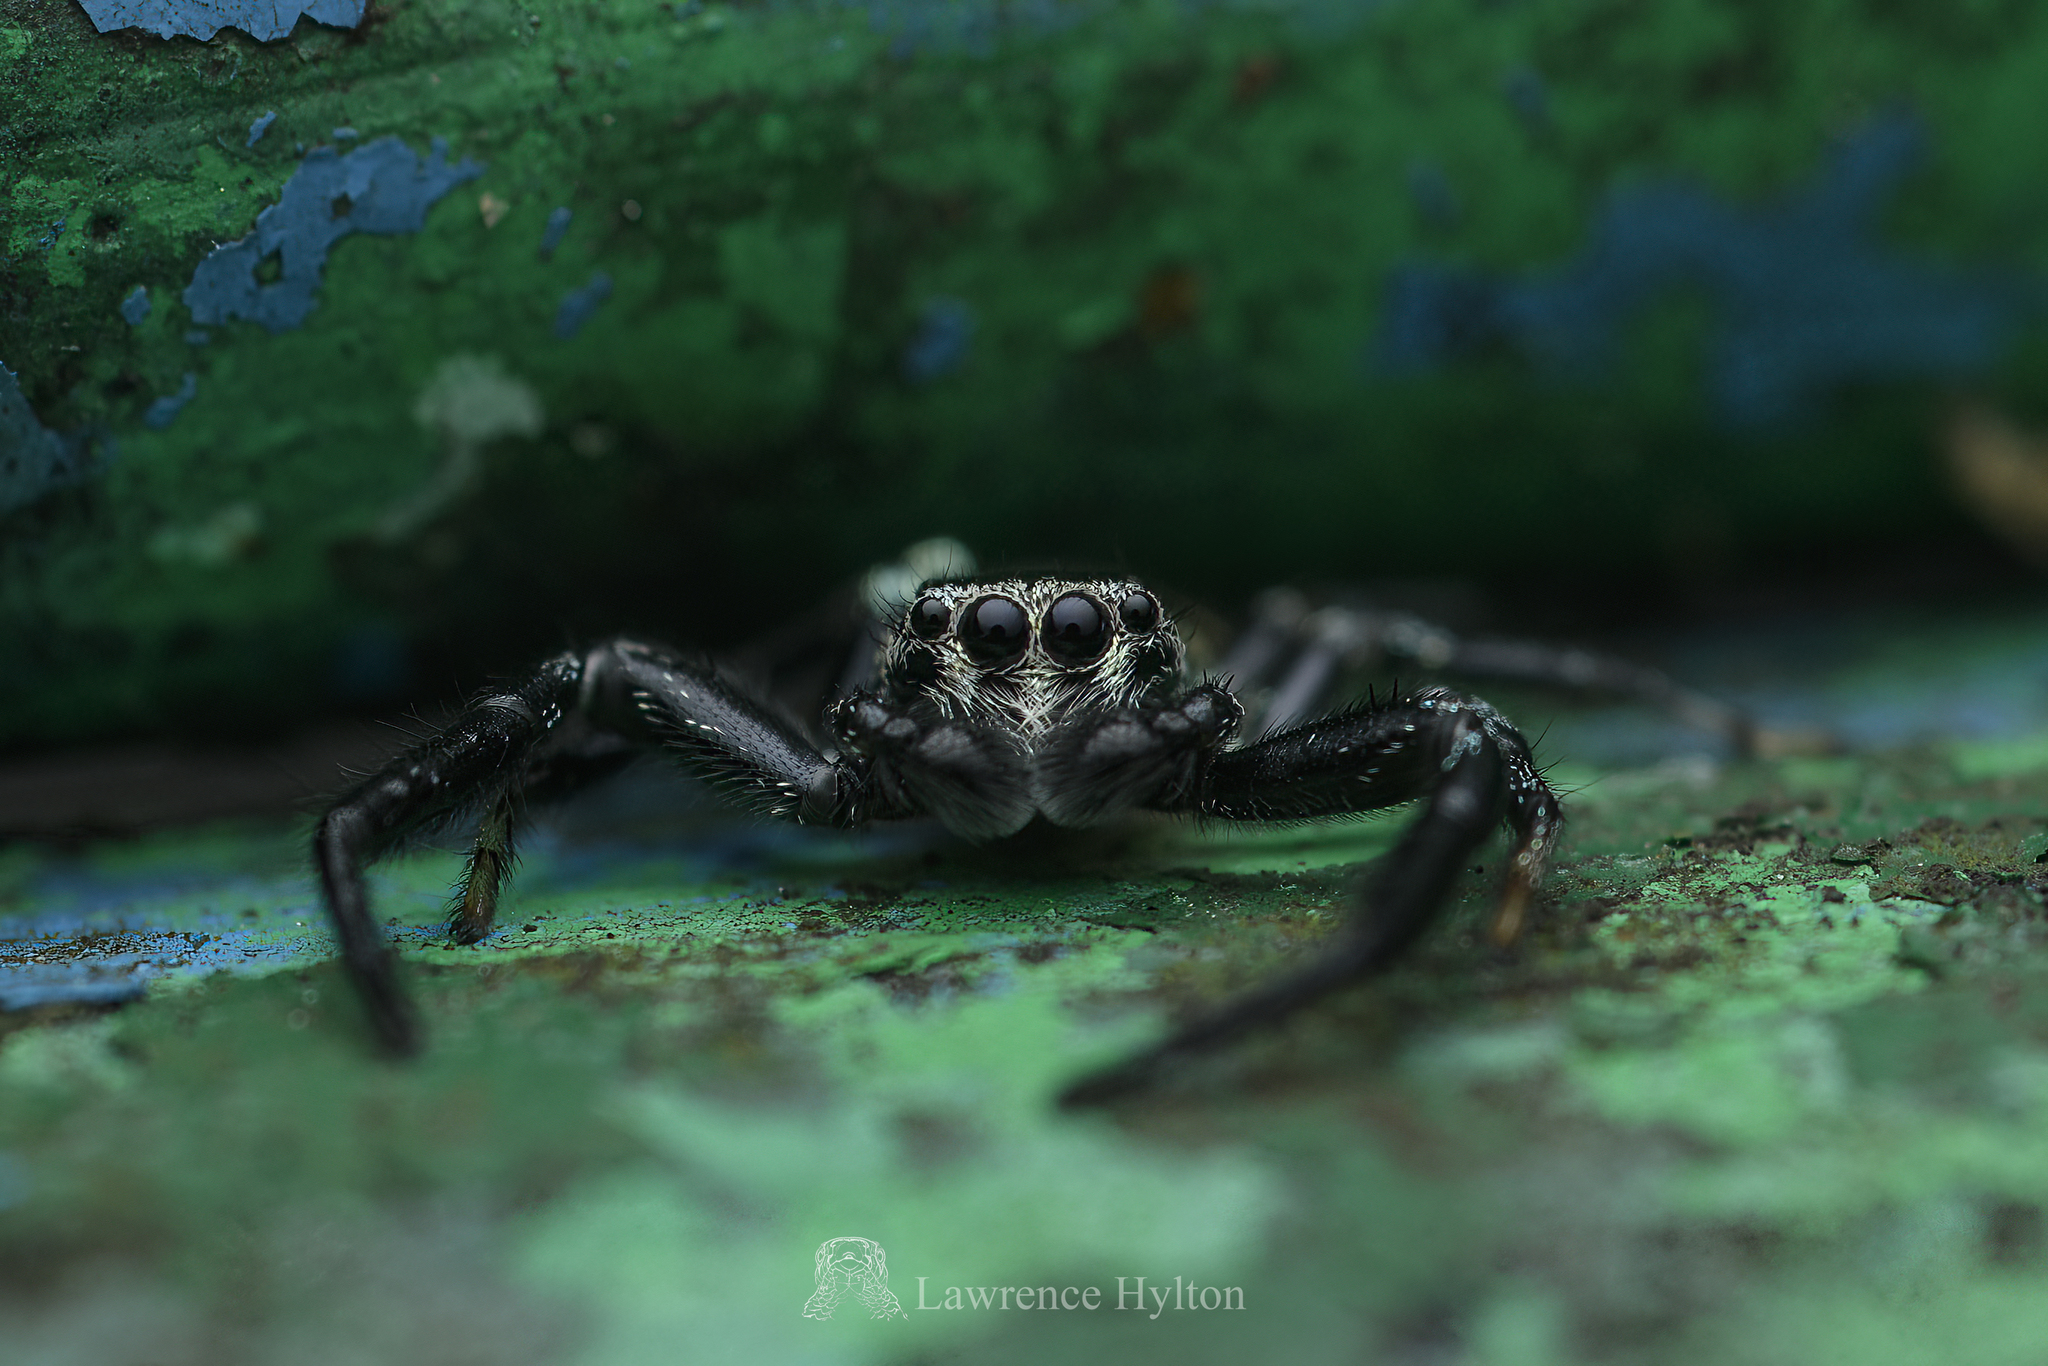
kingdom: Animalia
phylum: Arthropoda
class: Arachnida
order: Araneae
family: Salticidae
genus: Thiania
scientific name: Thiania bhamoensis
